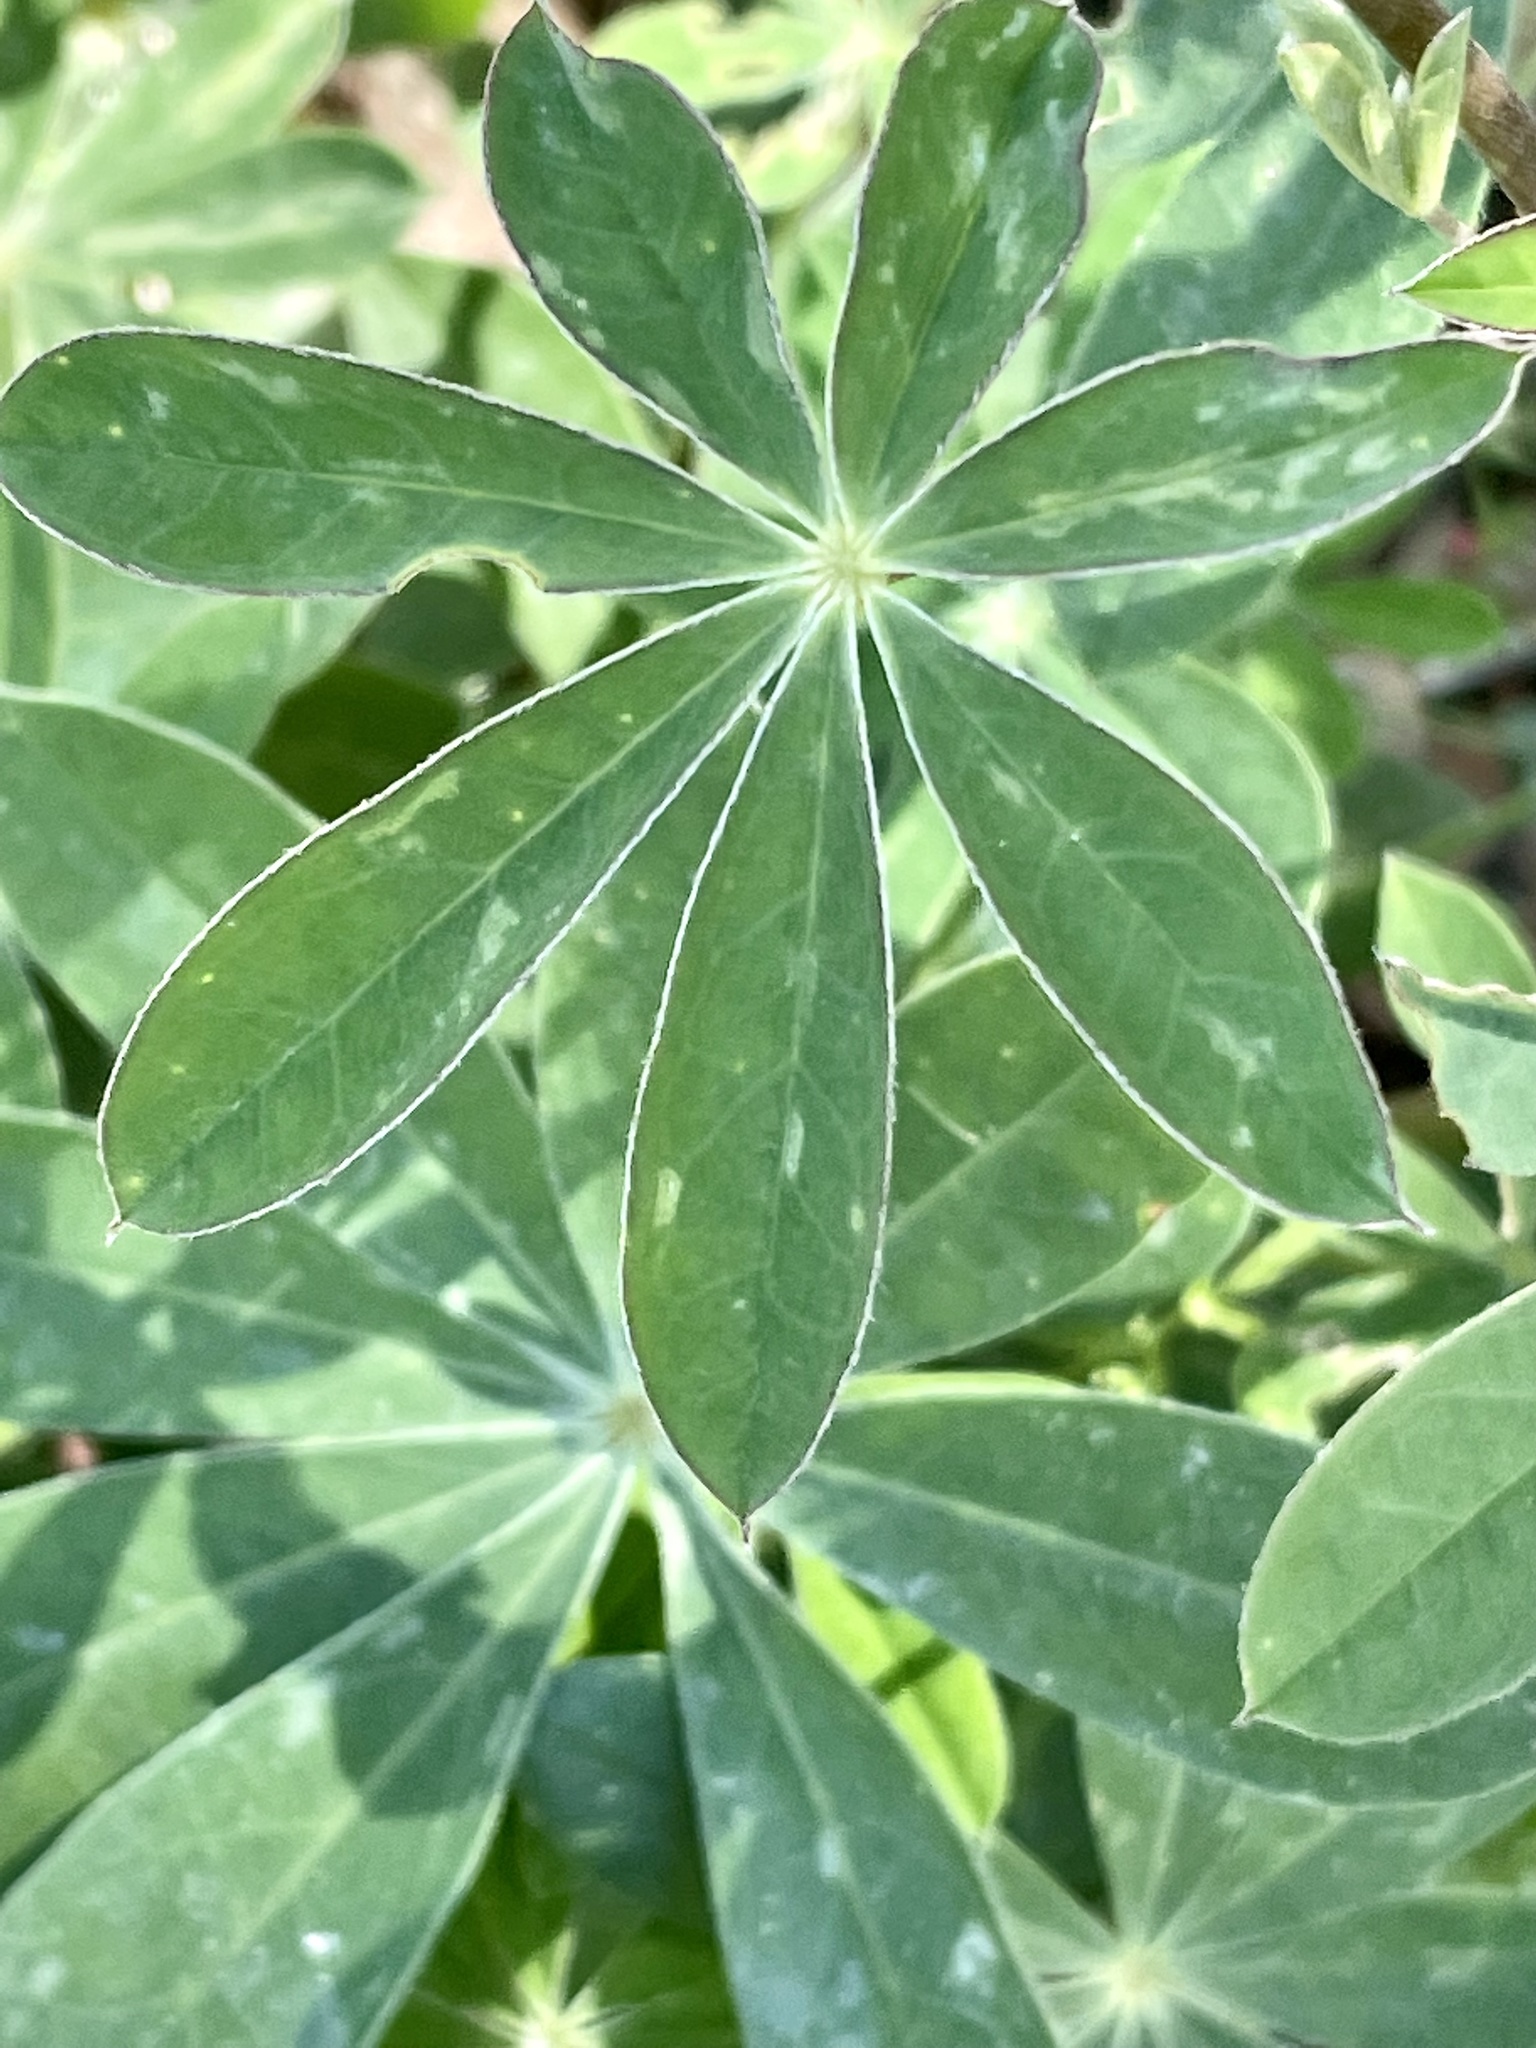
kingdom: Plantae
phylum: Tracheophyta
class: Magnoliopsida
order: Fabales
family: Fabaceae
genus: Lupinus
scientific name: Lupinus latifolius
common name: Broad-leaved lupine
